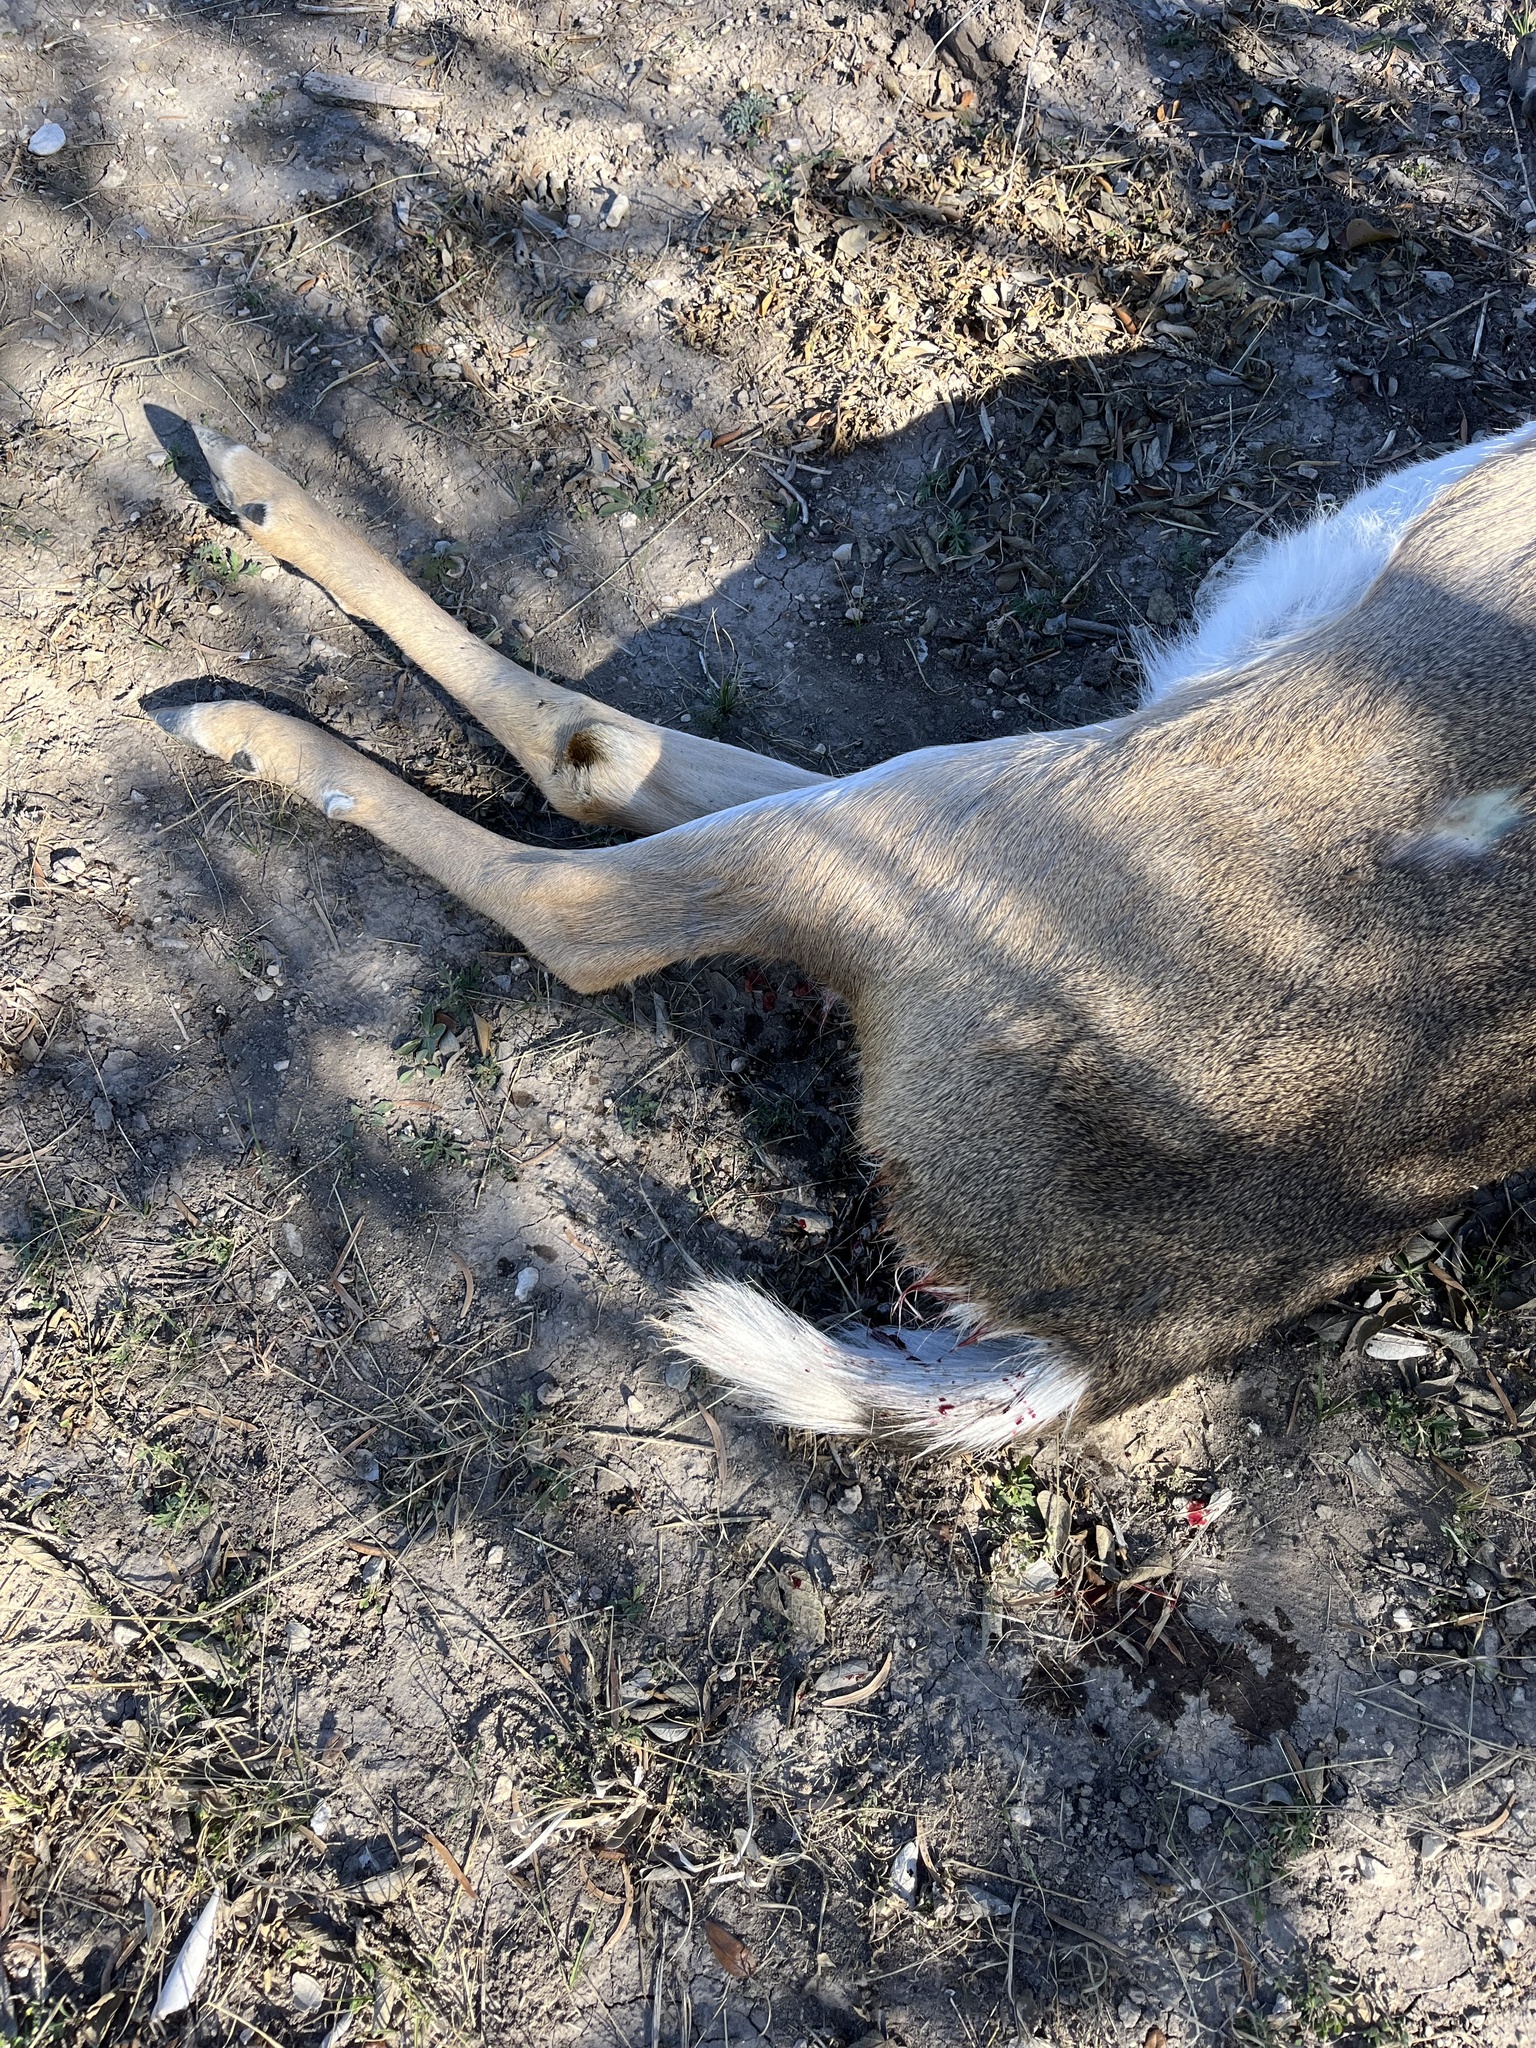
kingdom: Animalia
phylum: Chordata
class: Mammalia
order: Artiodactyla
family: Cervidae
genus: Odocoileus
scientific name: Odocoileus virginianus
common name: White-tailed deer
